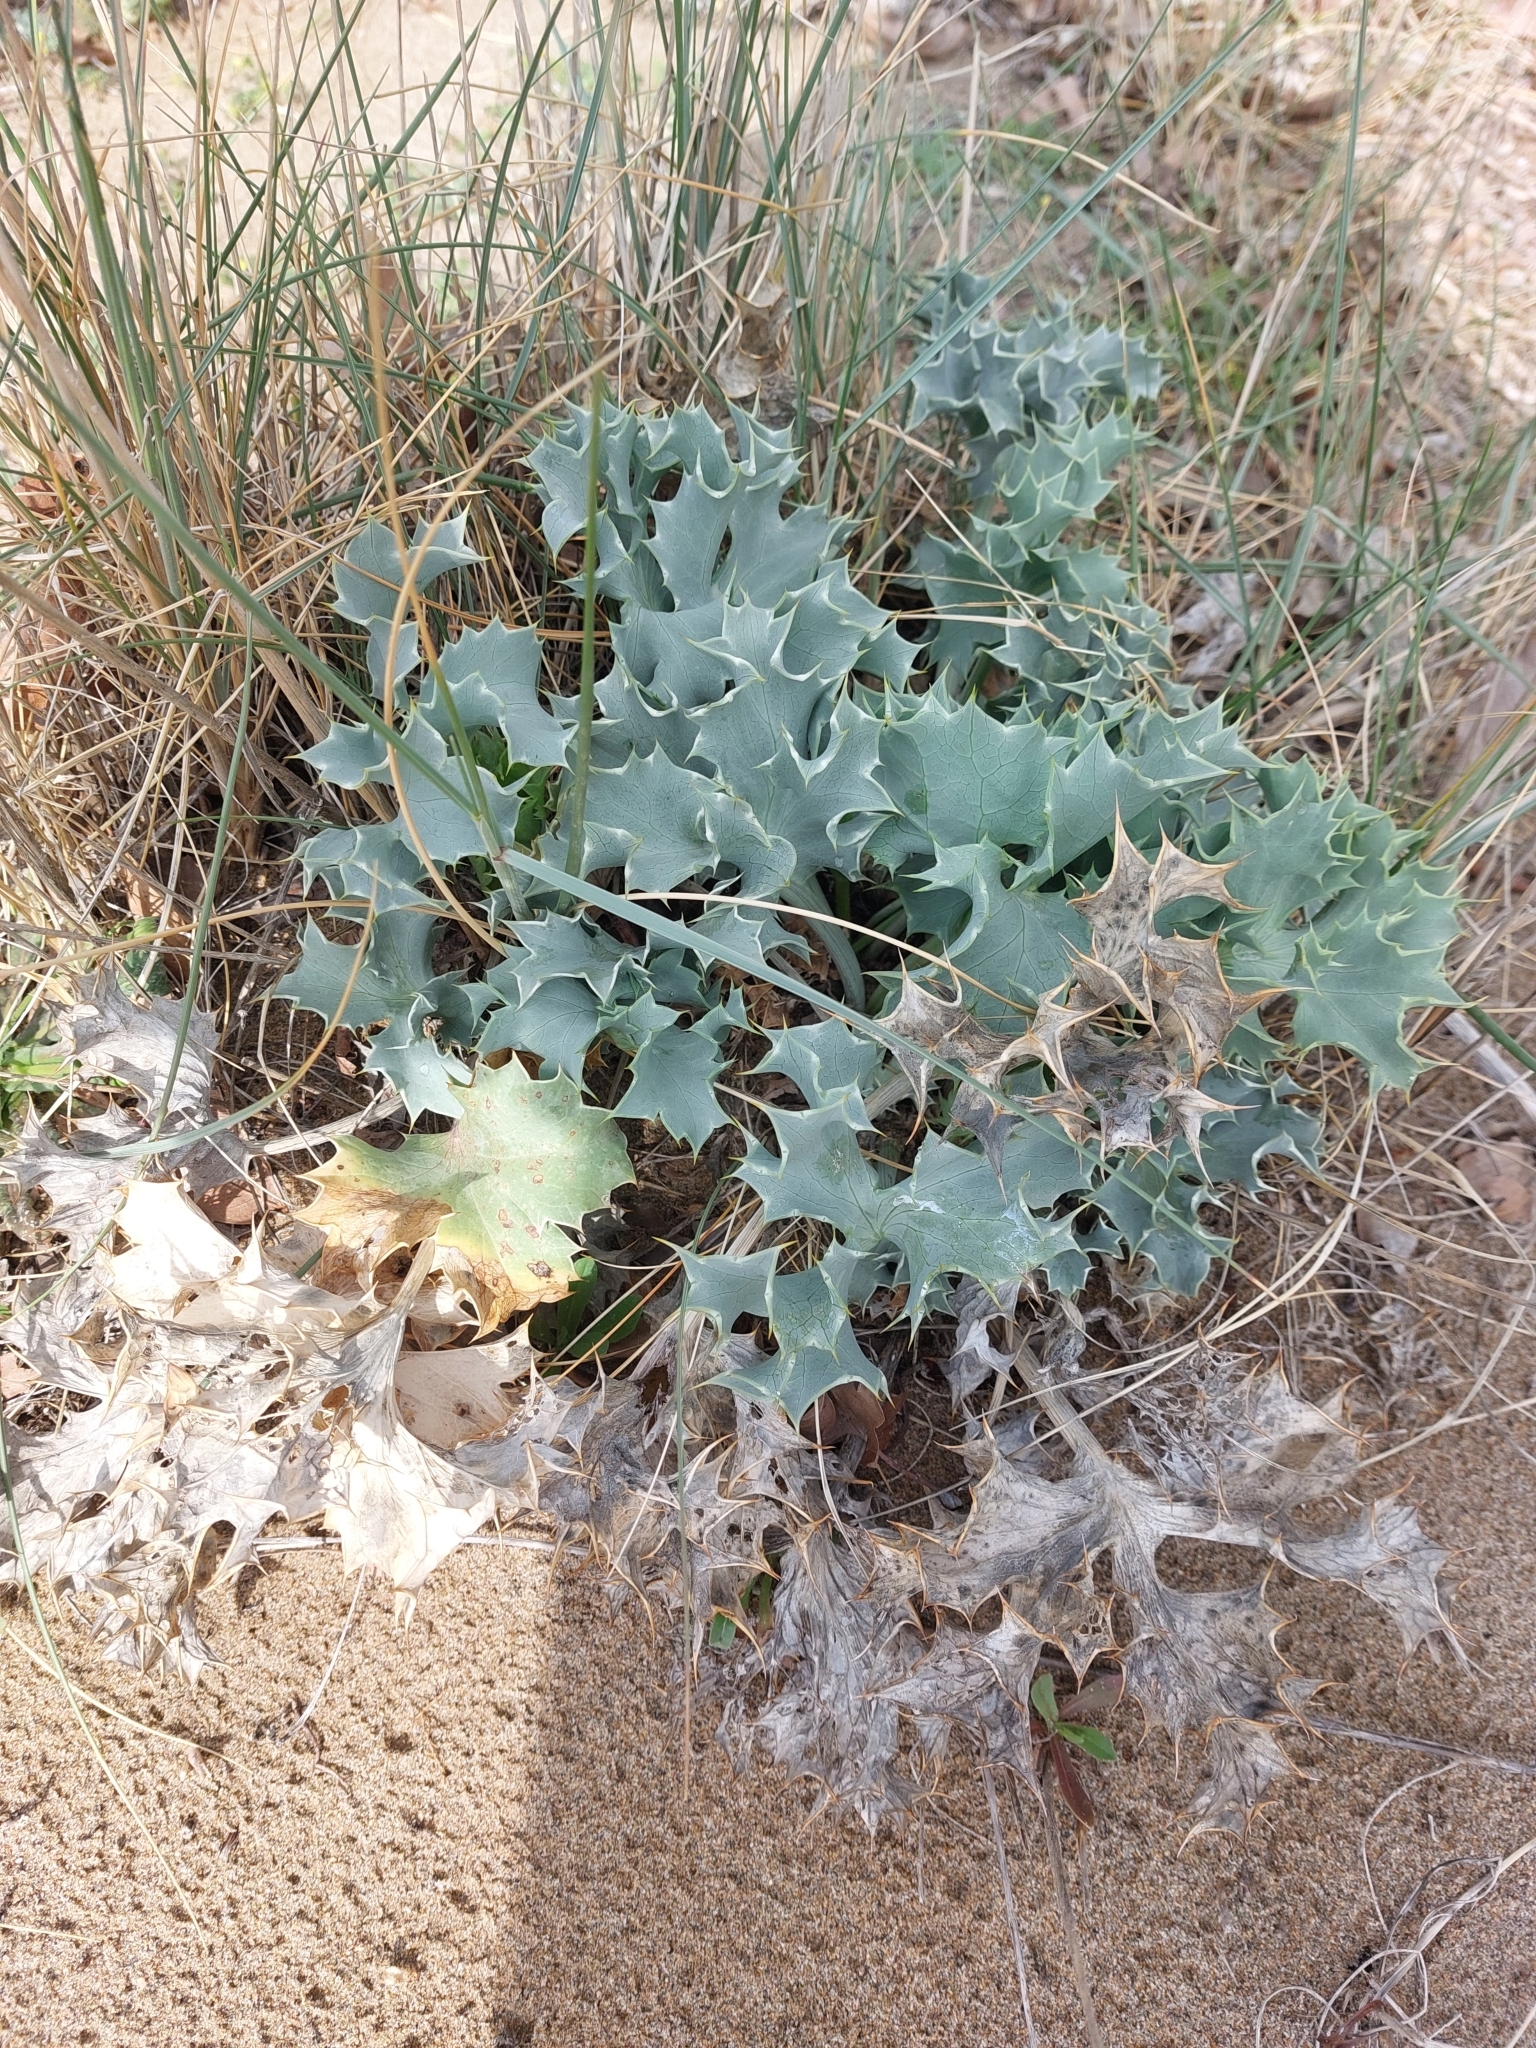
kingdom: Plantae
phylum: Tracheophyta
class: Magnoliopsida
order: Apiales
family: Apiaceae
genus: Eryngium
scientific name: Eryngium maritimum
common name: Sea-holly
